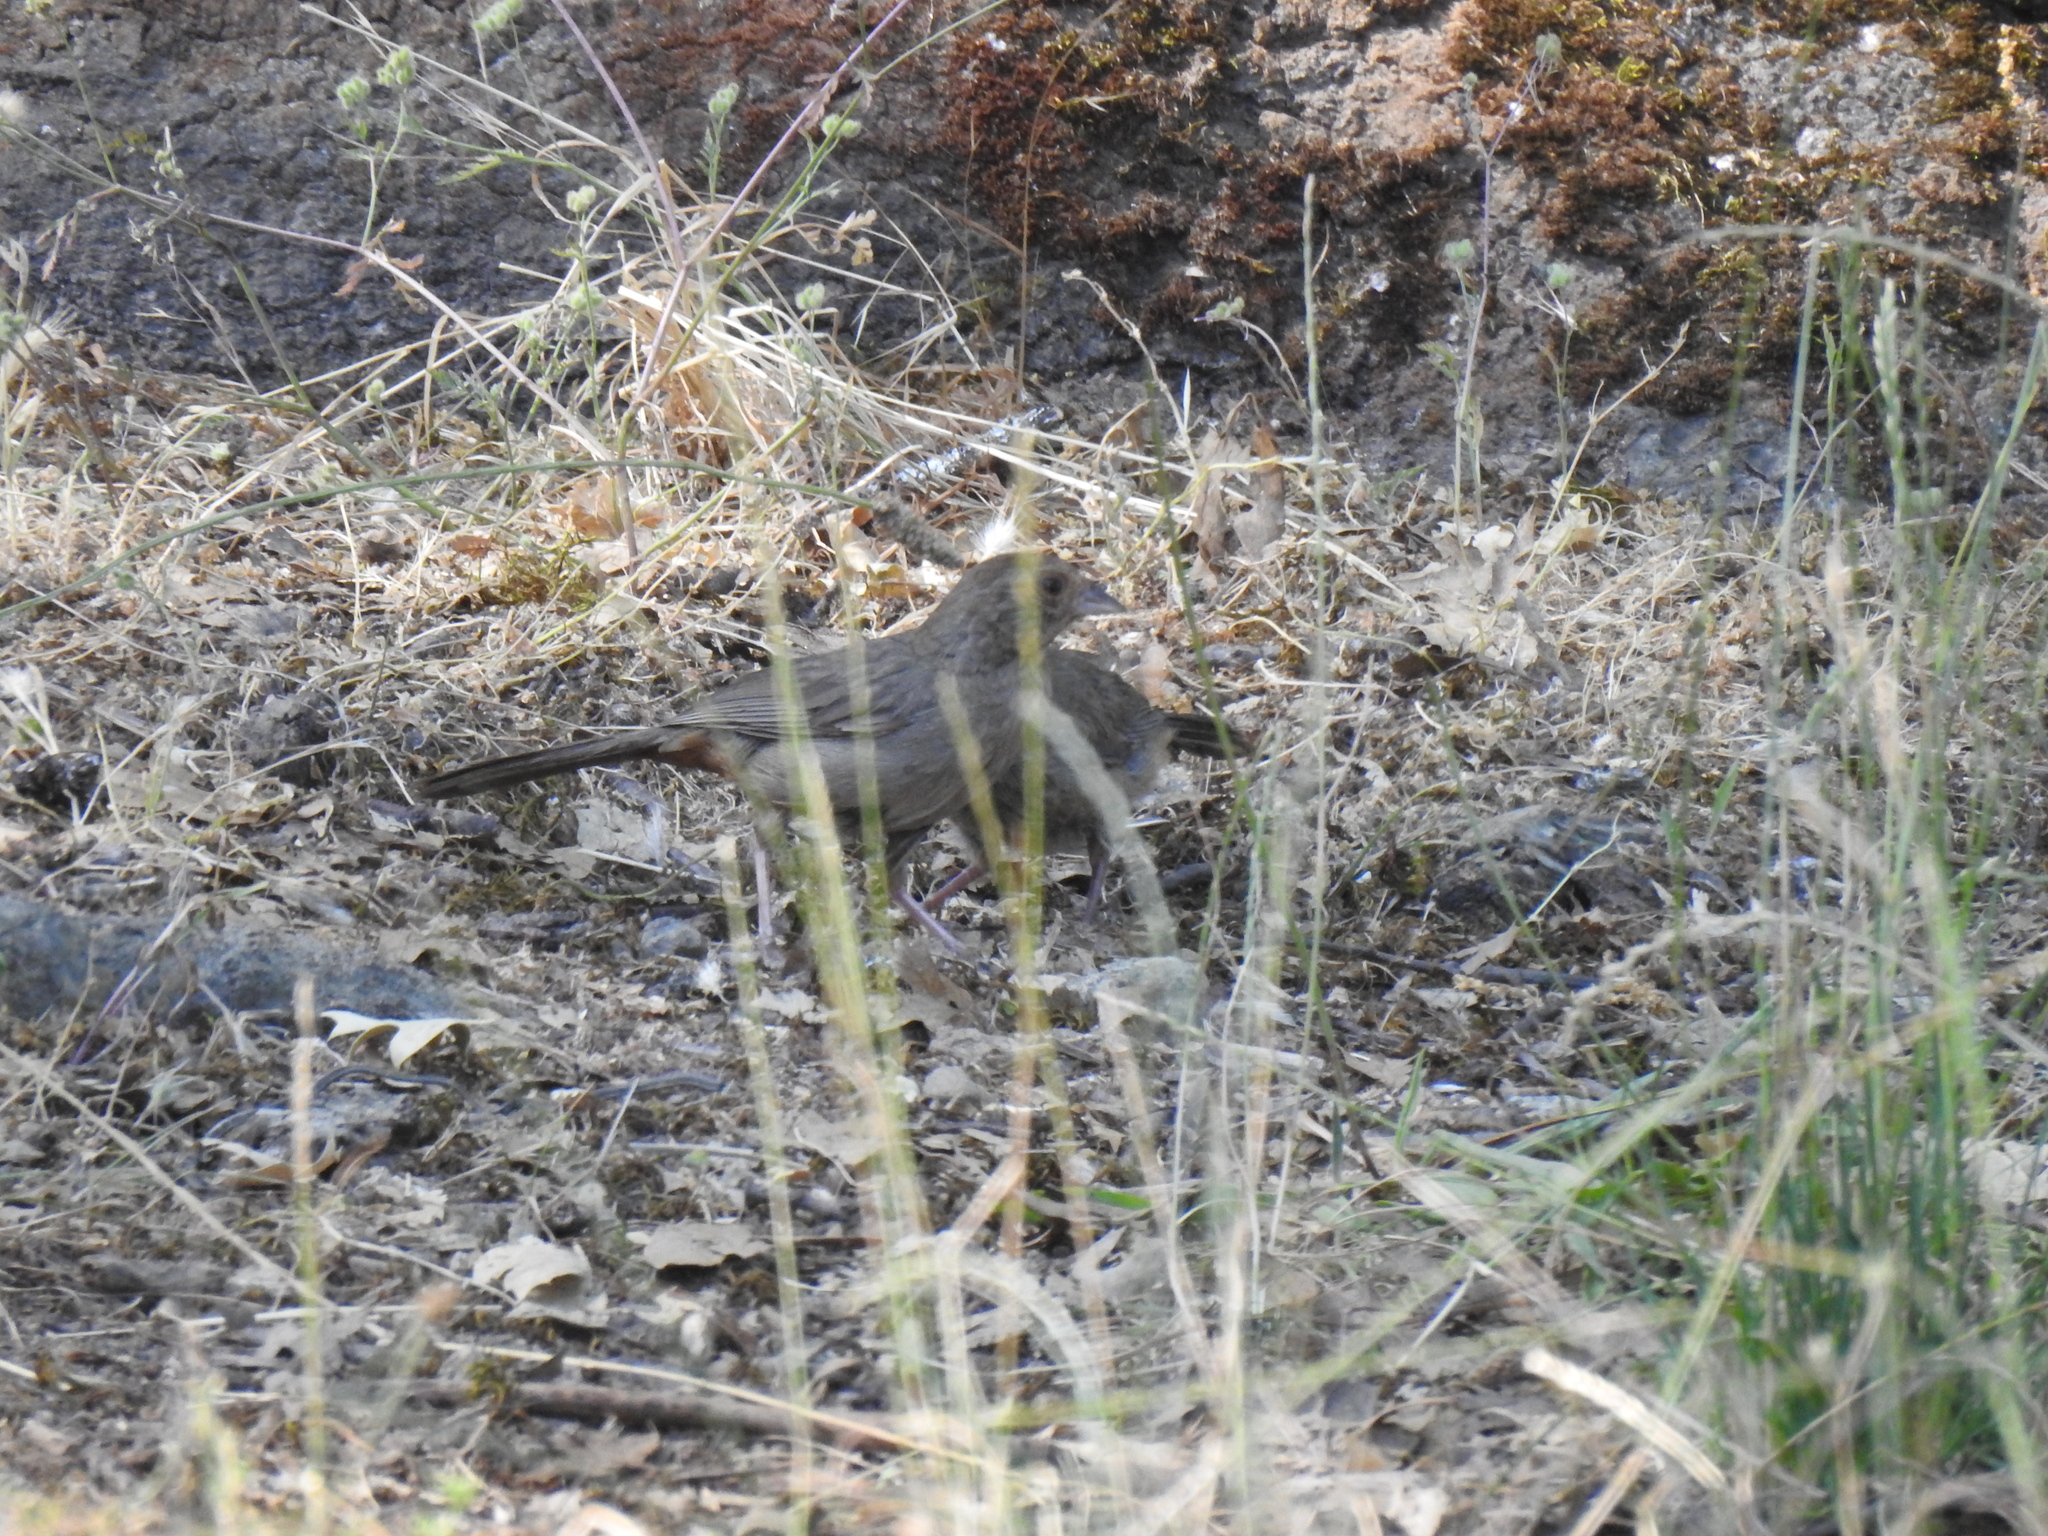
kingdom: Animalia
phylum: Chordata
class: Aves
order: Passeriformes
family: Passerellidae
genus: Melozone
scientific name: Melozone crissalis
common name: California towhee
